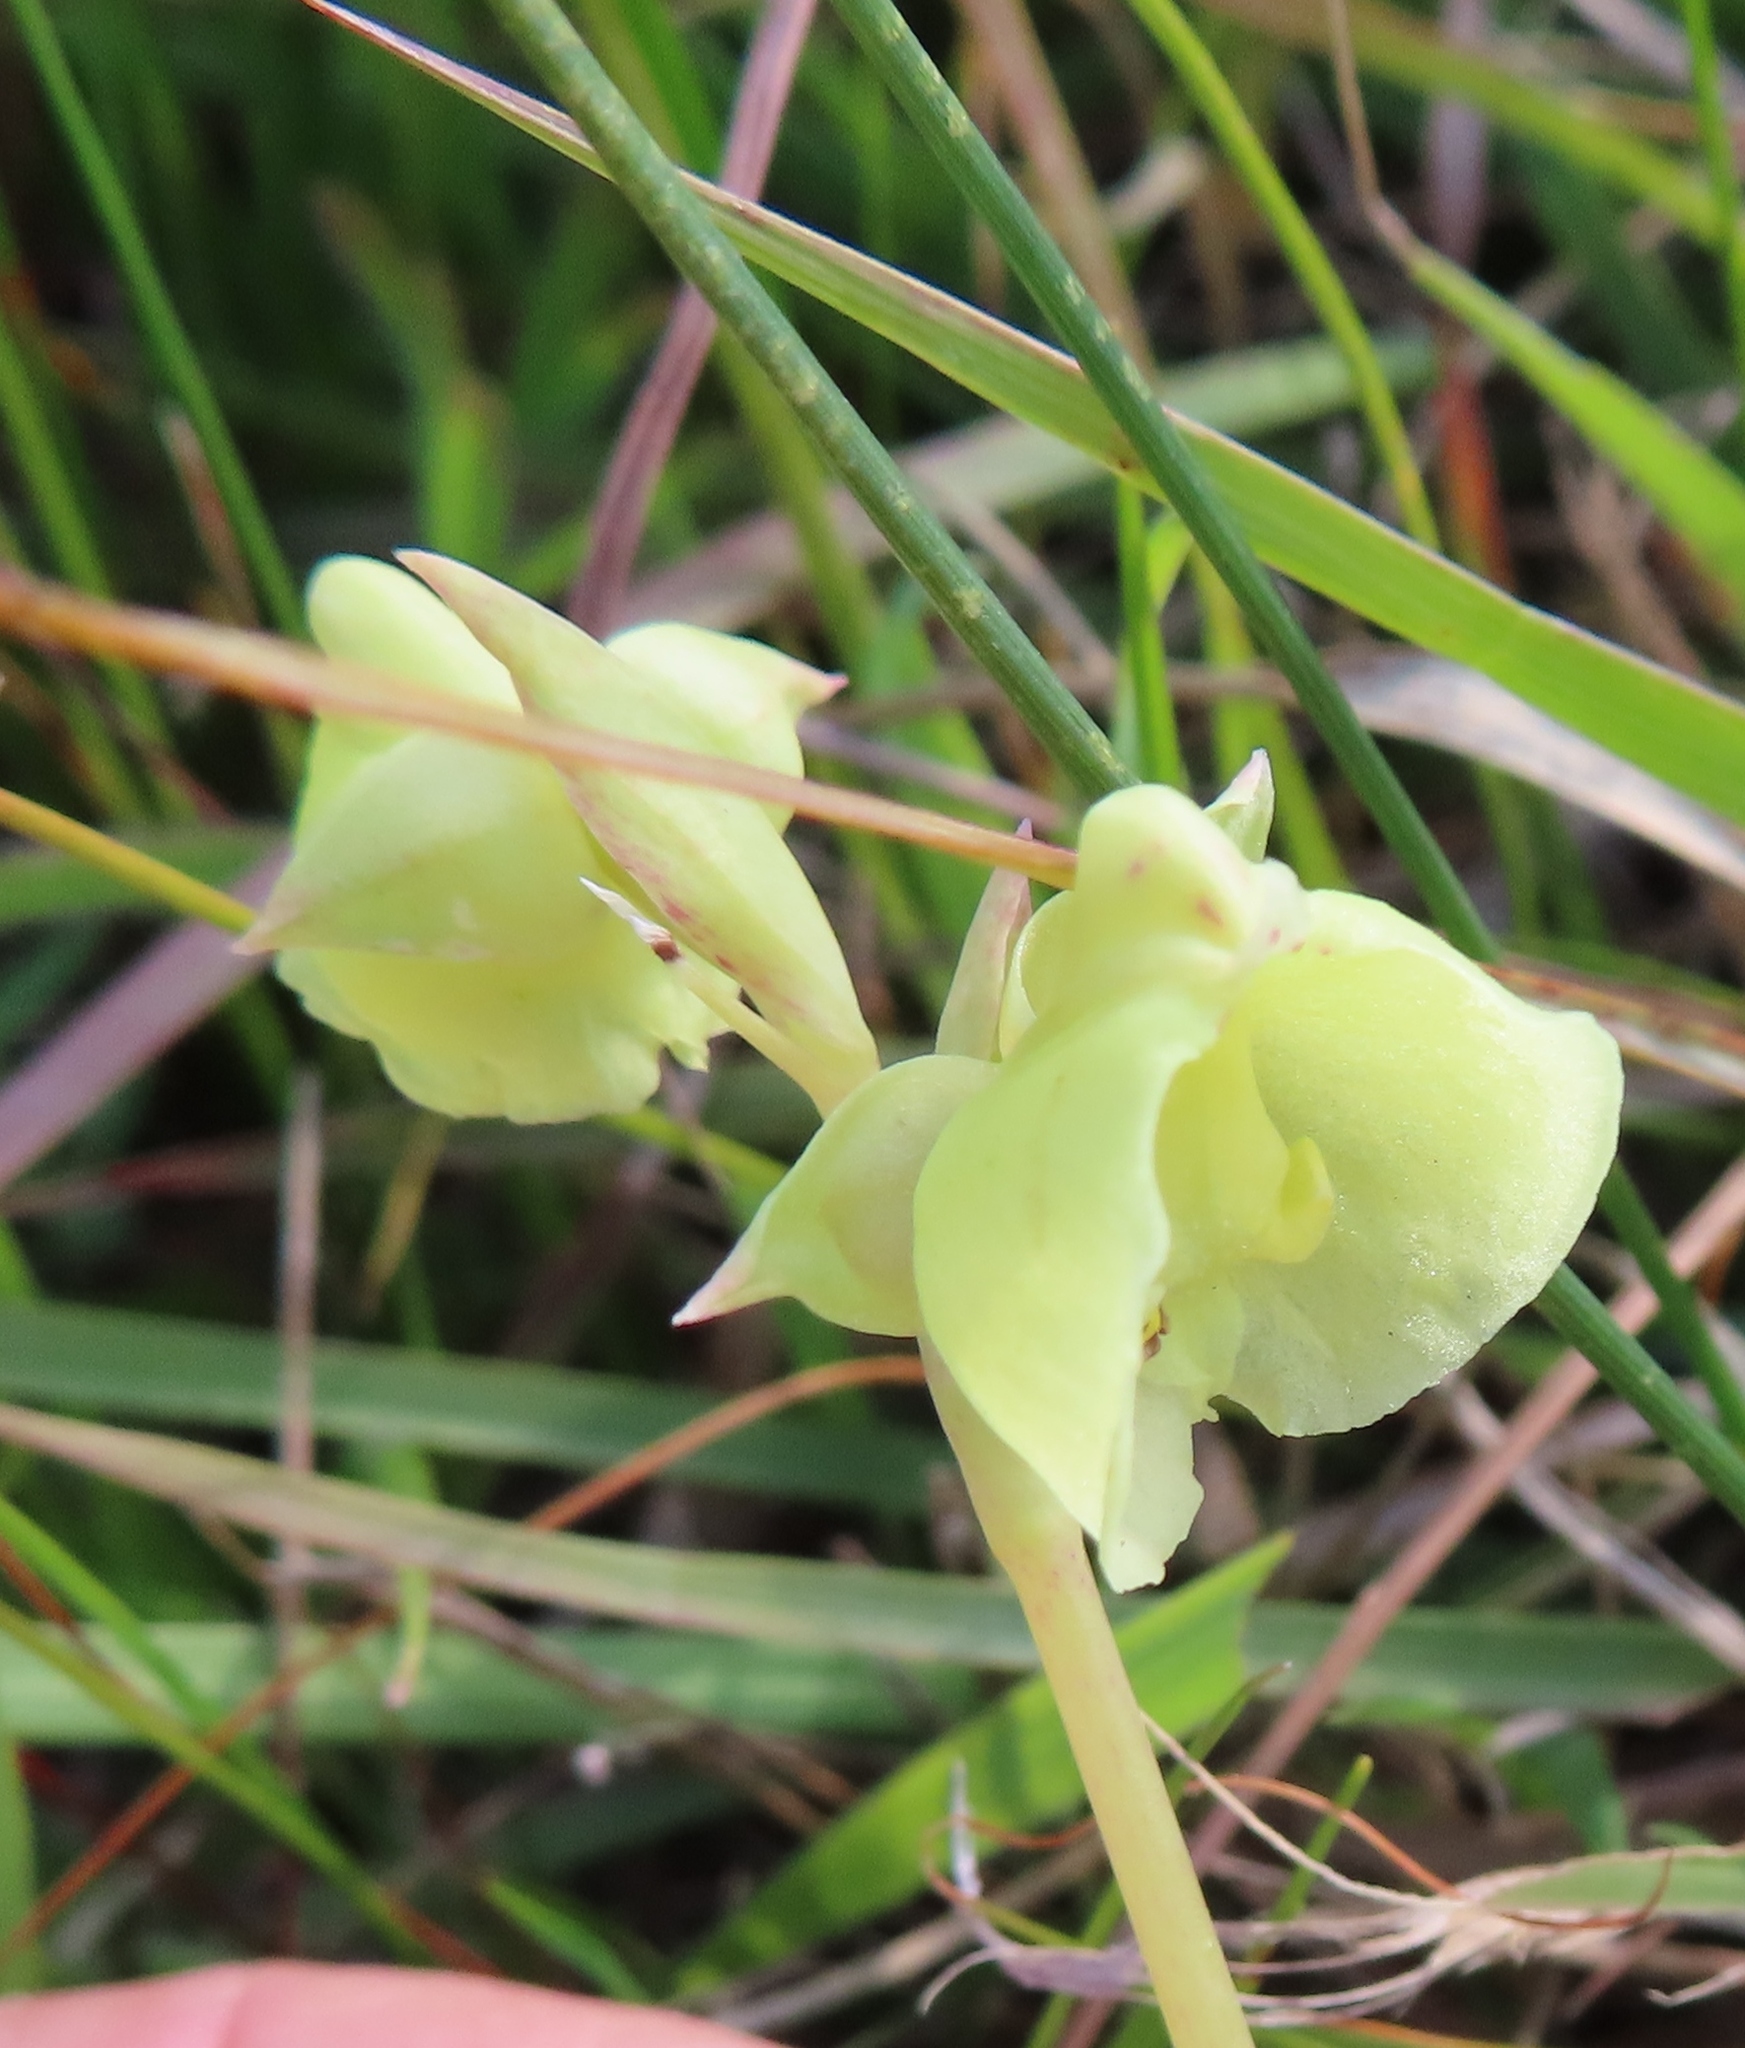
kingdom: Plantae
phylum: Tracheophyta
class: Liliopsida
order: Asparagales
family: Orchidaceae
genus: Pterygodium
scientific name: Pterygodium catholicum
